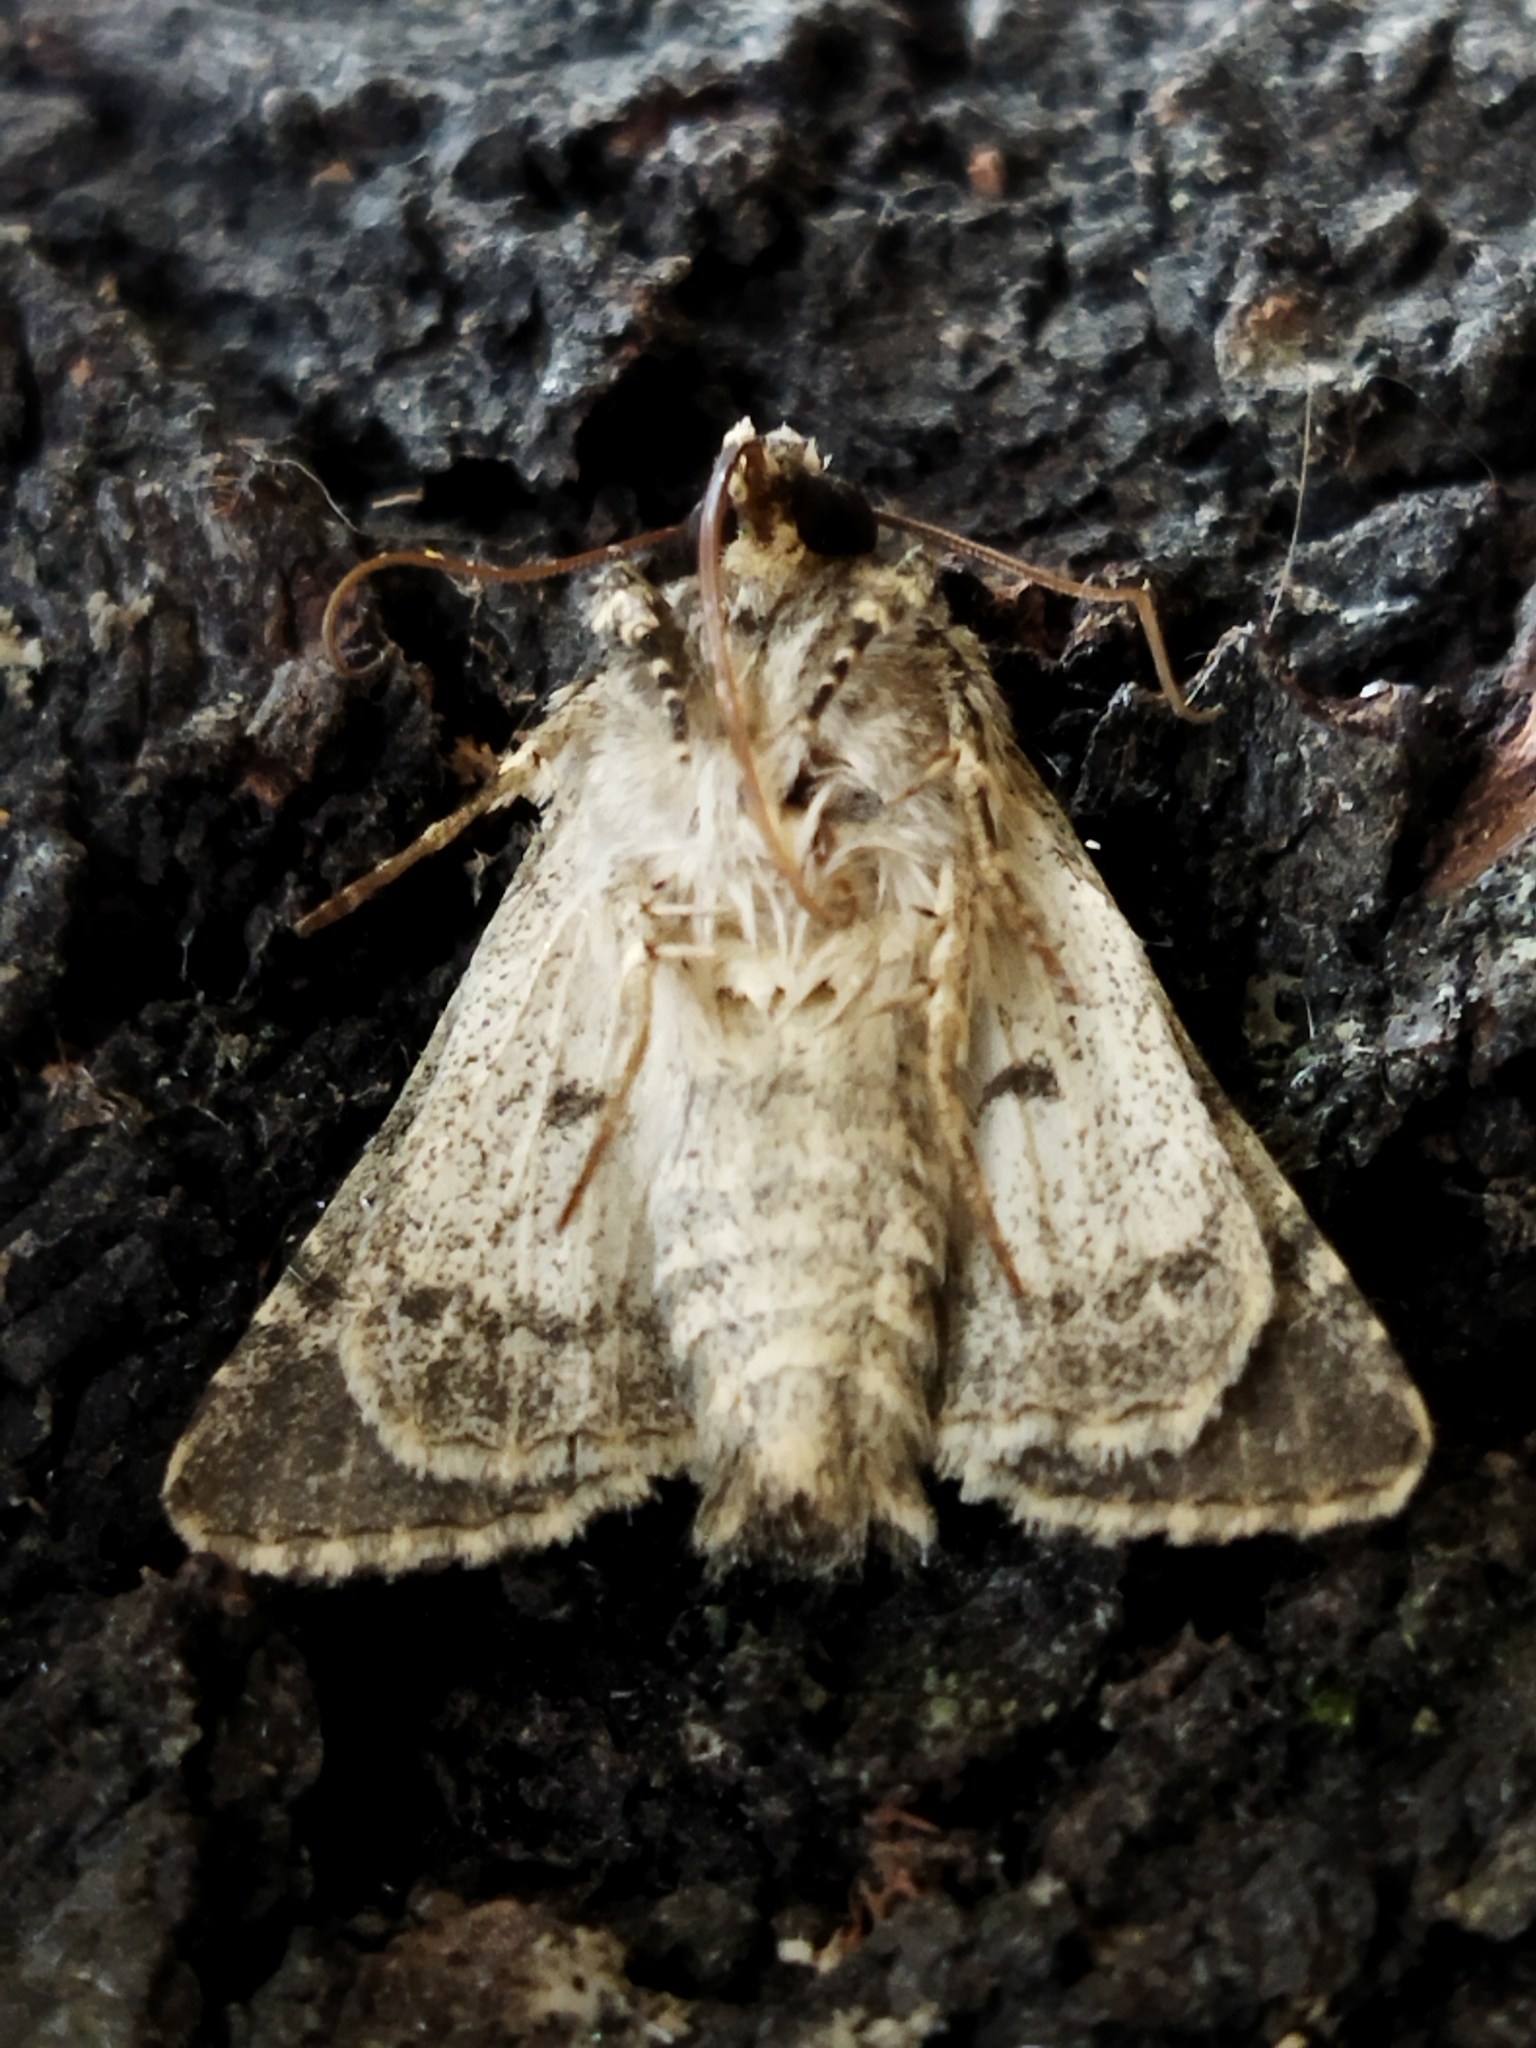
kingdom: Animalia
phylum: Arthropoda
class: Insecta
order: Lepidoptera
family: Noctuidae
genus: Hecatera
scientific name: Hecatera dysodea
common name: Small ranunculus
